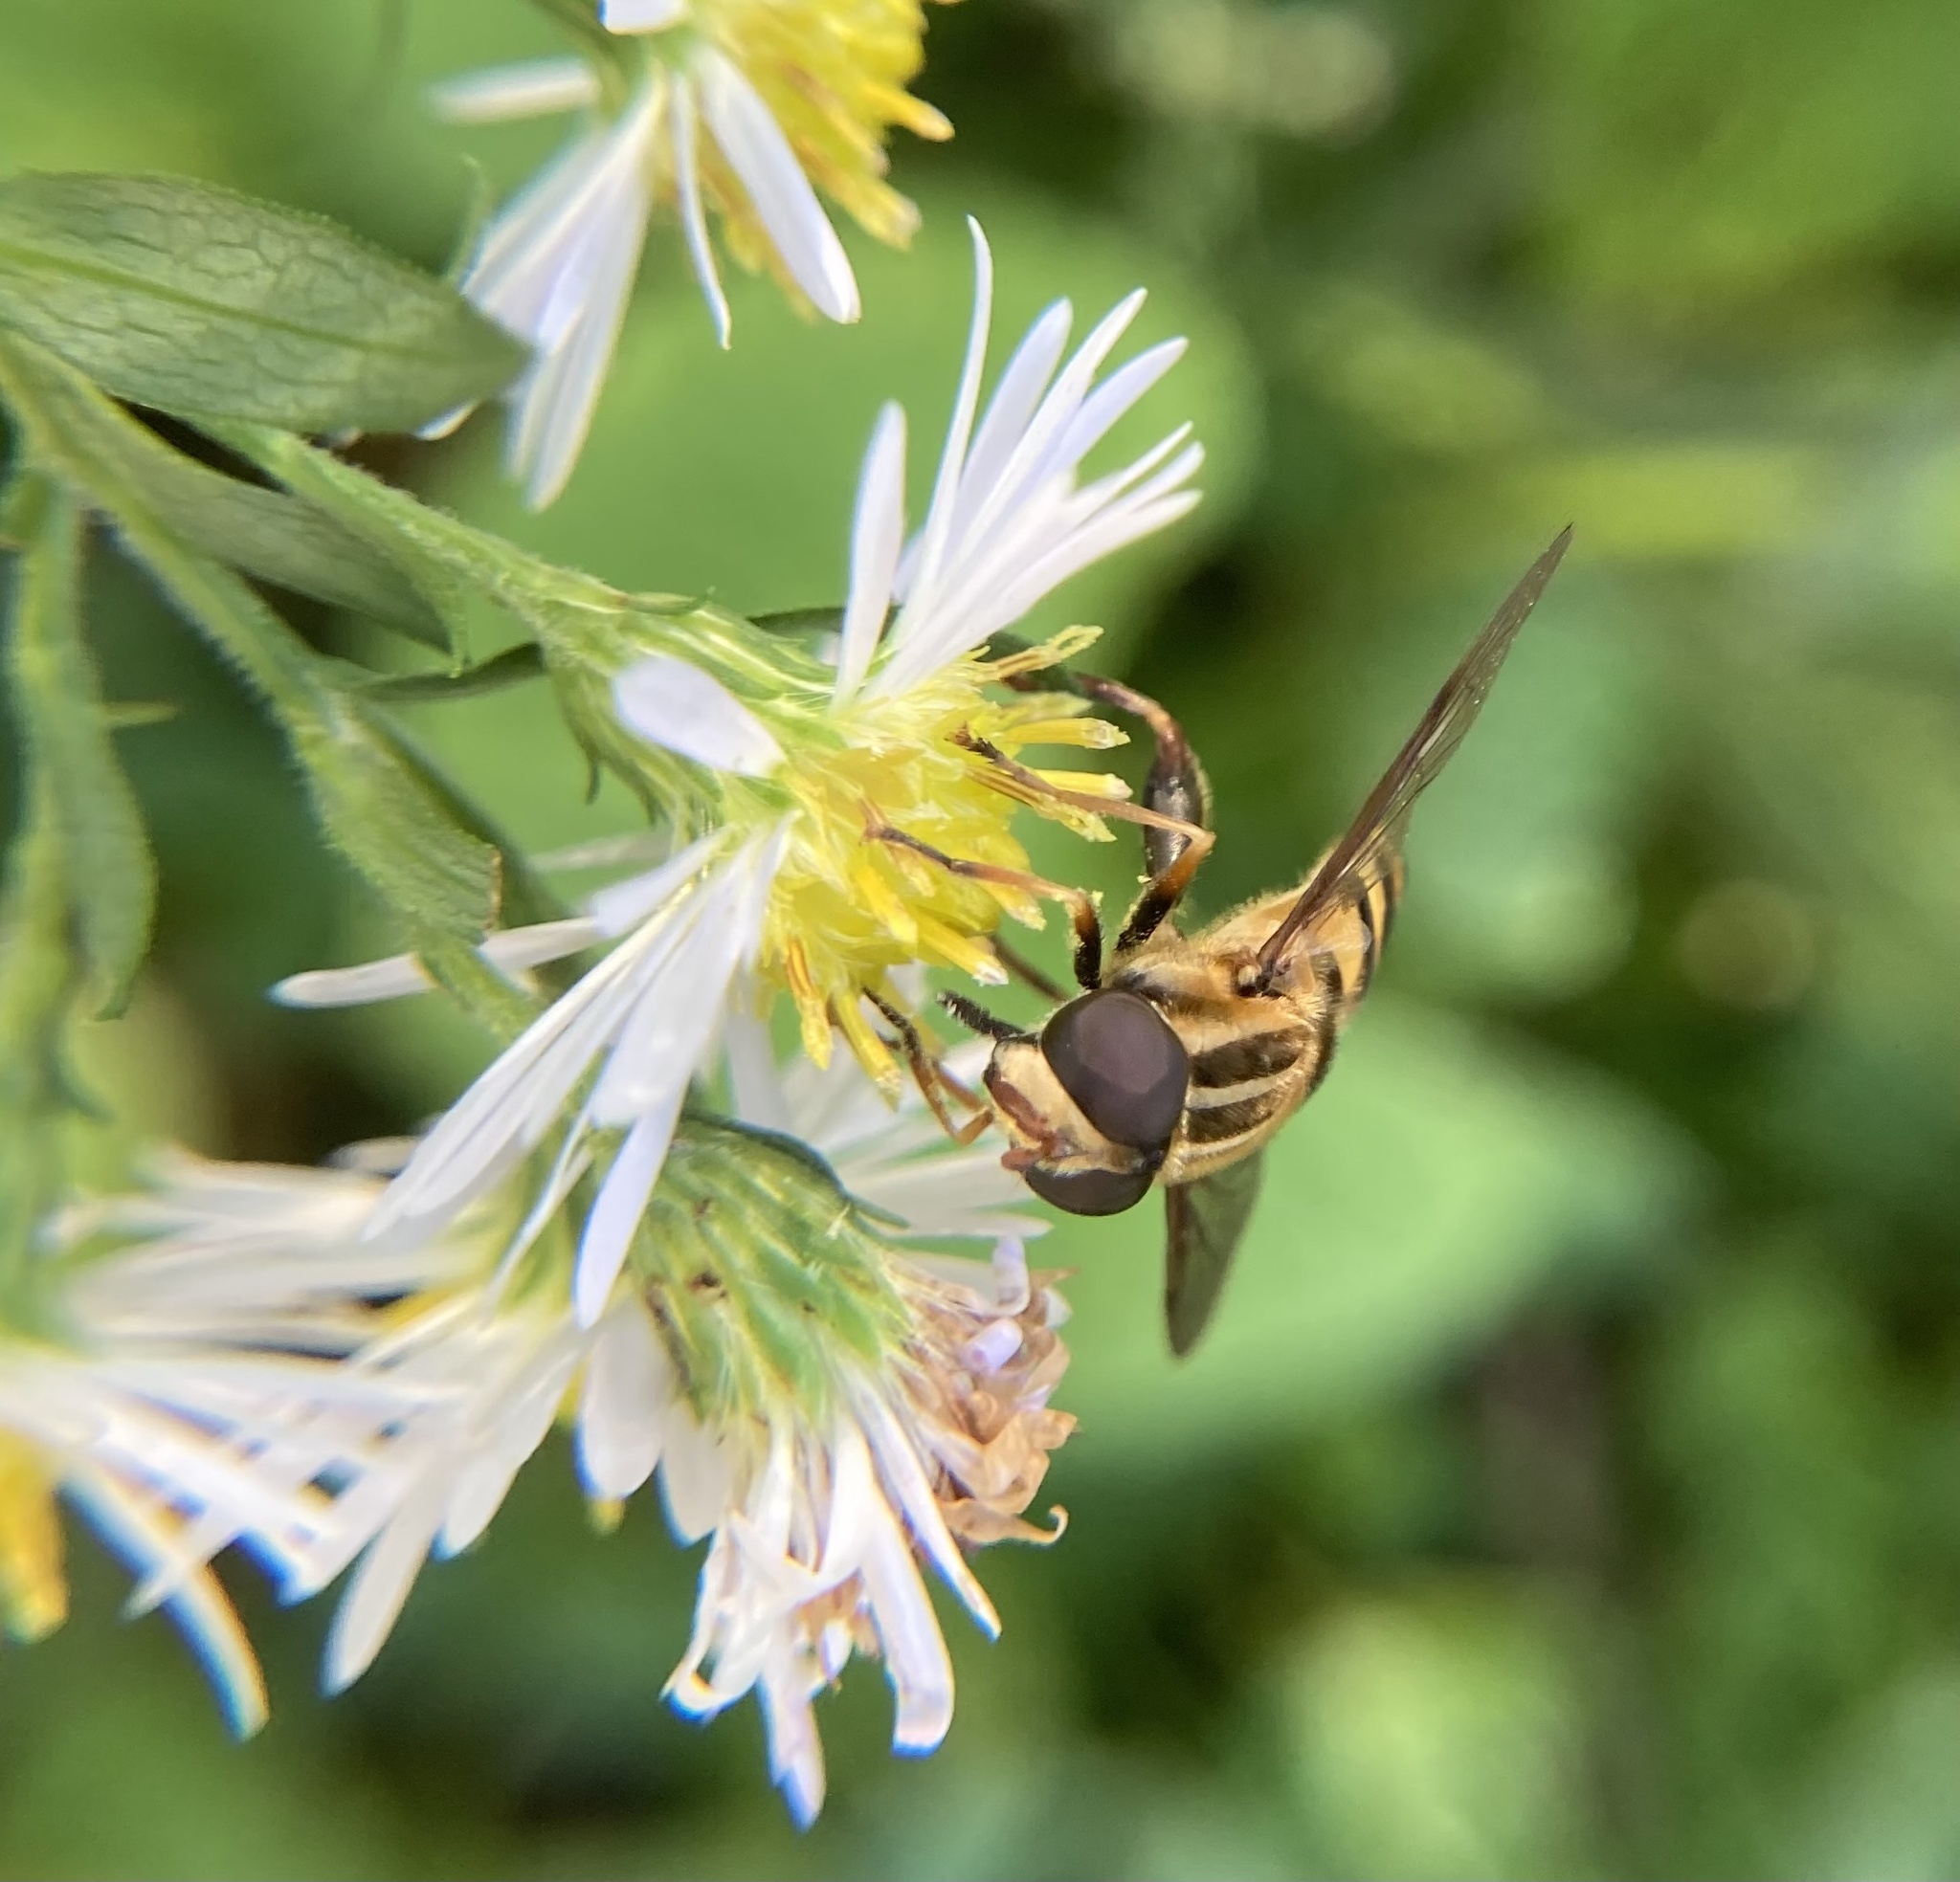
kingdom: Animalia
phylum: Arthropoda
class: Insecta
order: Diptera
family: Syrphidae
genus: Helophilus
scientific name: Helophilus fasciatus
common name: Narrow-headed marsh fly
